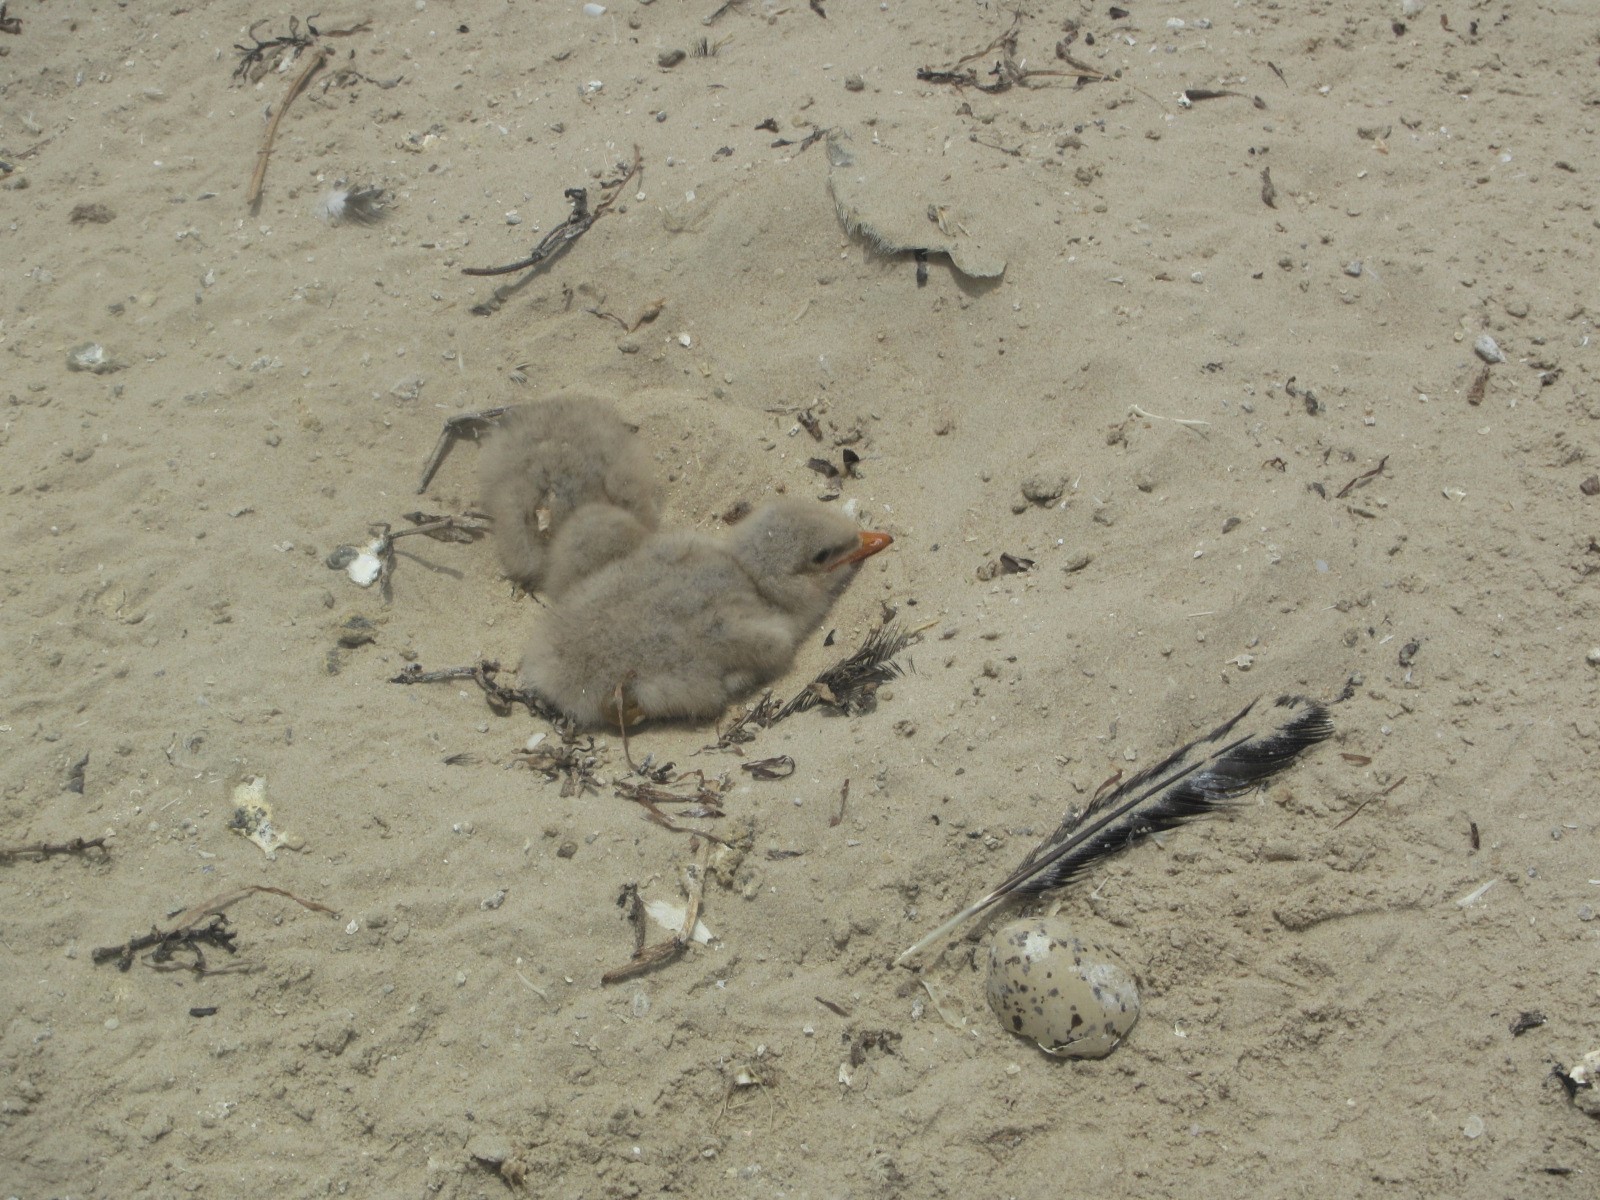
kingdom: Animalia
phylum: Chordata
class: Aves
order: Charadriiformes
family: Laridae
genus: Hydroprogne
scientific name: Hydroprogne caspia
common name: Caspian tern
